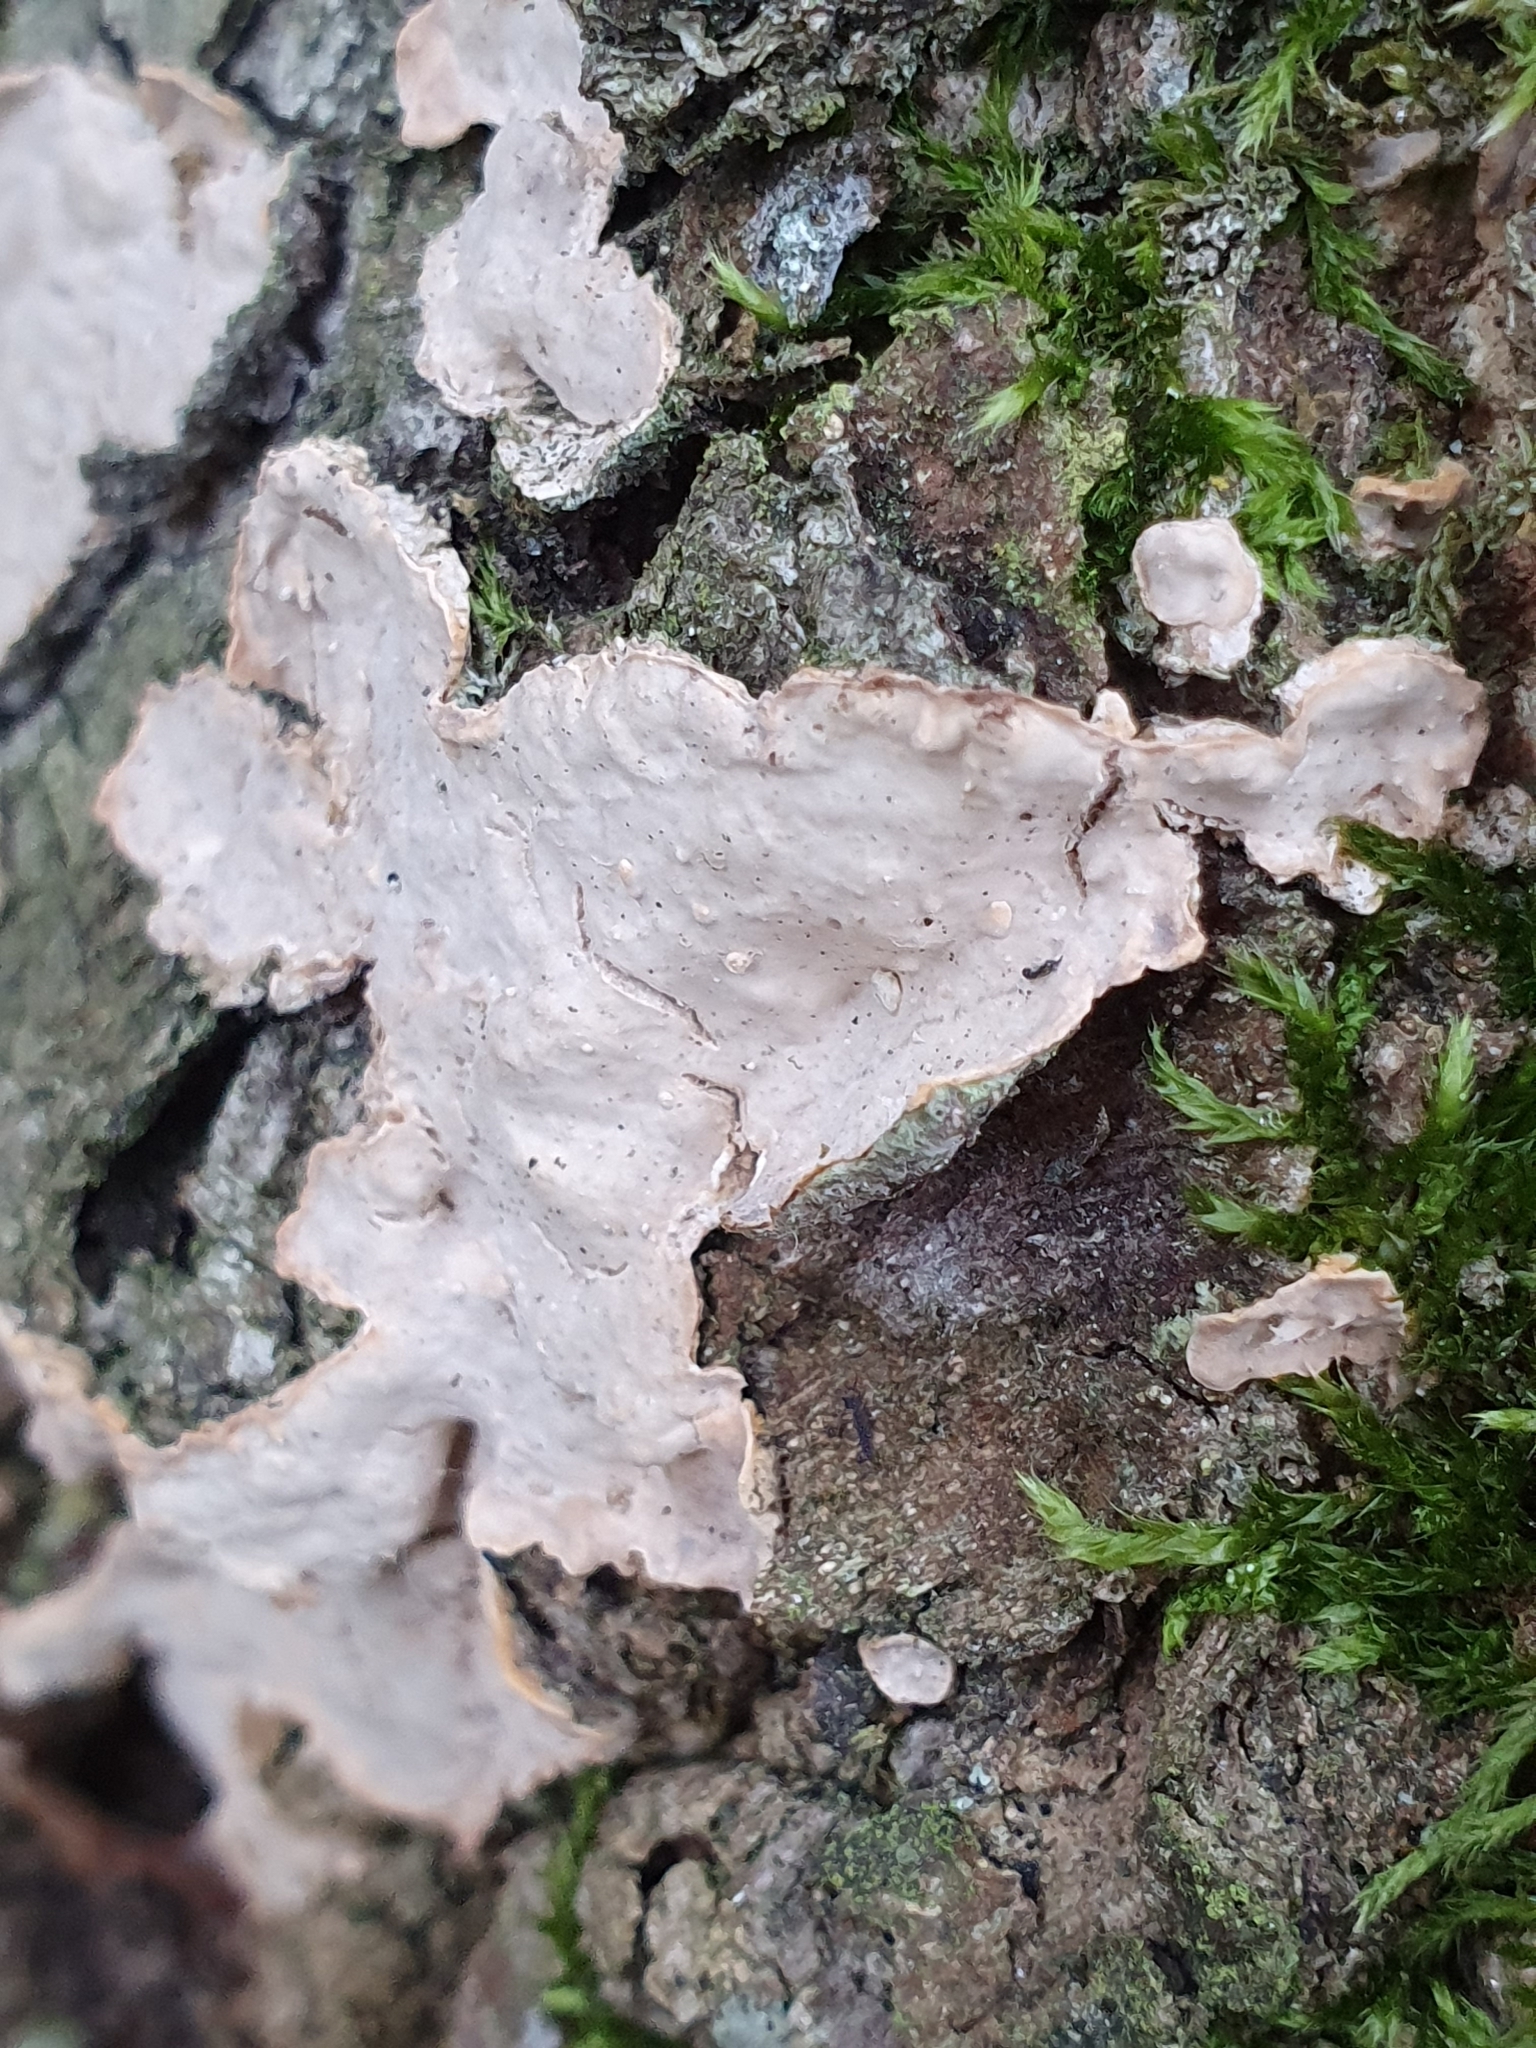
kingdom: Fungi
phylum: Basidiomycota
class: Agaricomycetes
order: Russulales
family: Stereaceae
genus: Stereum
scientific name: Stereum rugosum
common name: Bleeding broadleaf crust
